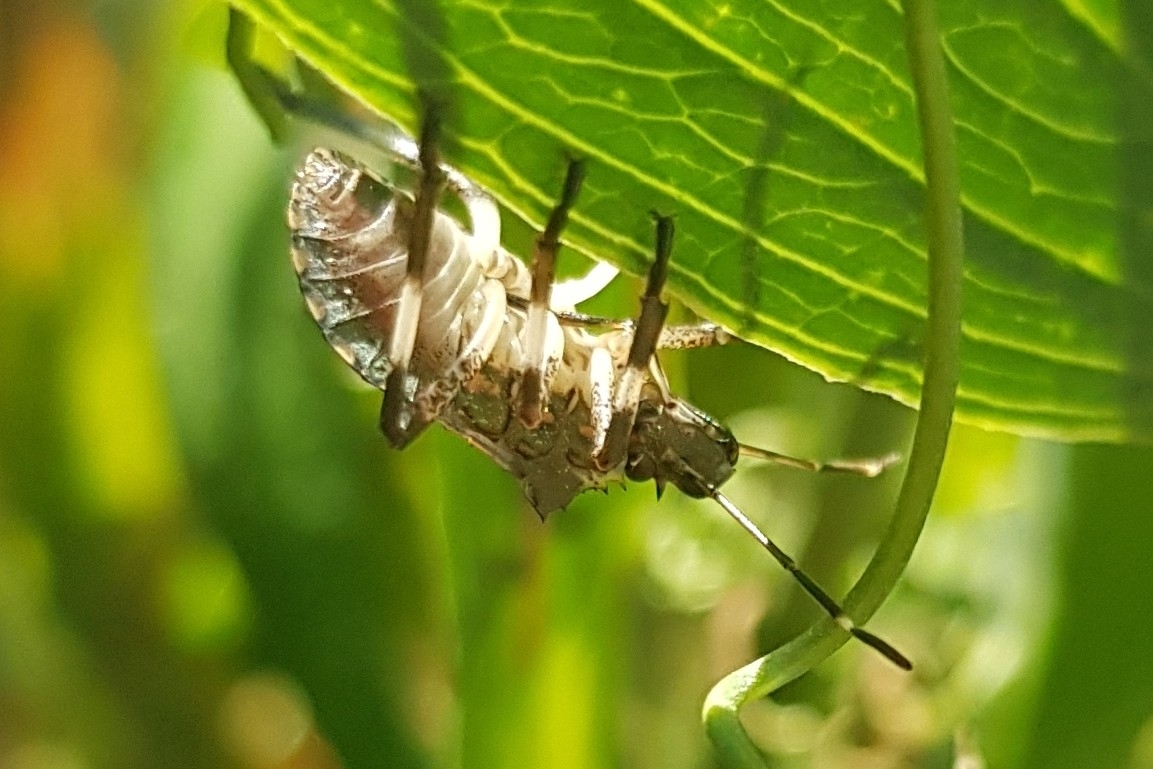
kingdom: Animalia
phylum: Arthropoda
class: Insecta
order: Hemiptera
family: Pentatomidae
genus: Halyomorpha
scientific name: Halyomorpha halys
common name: Brown marmorated stink bug
